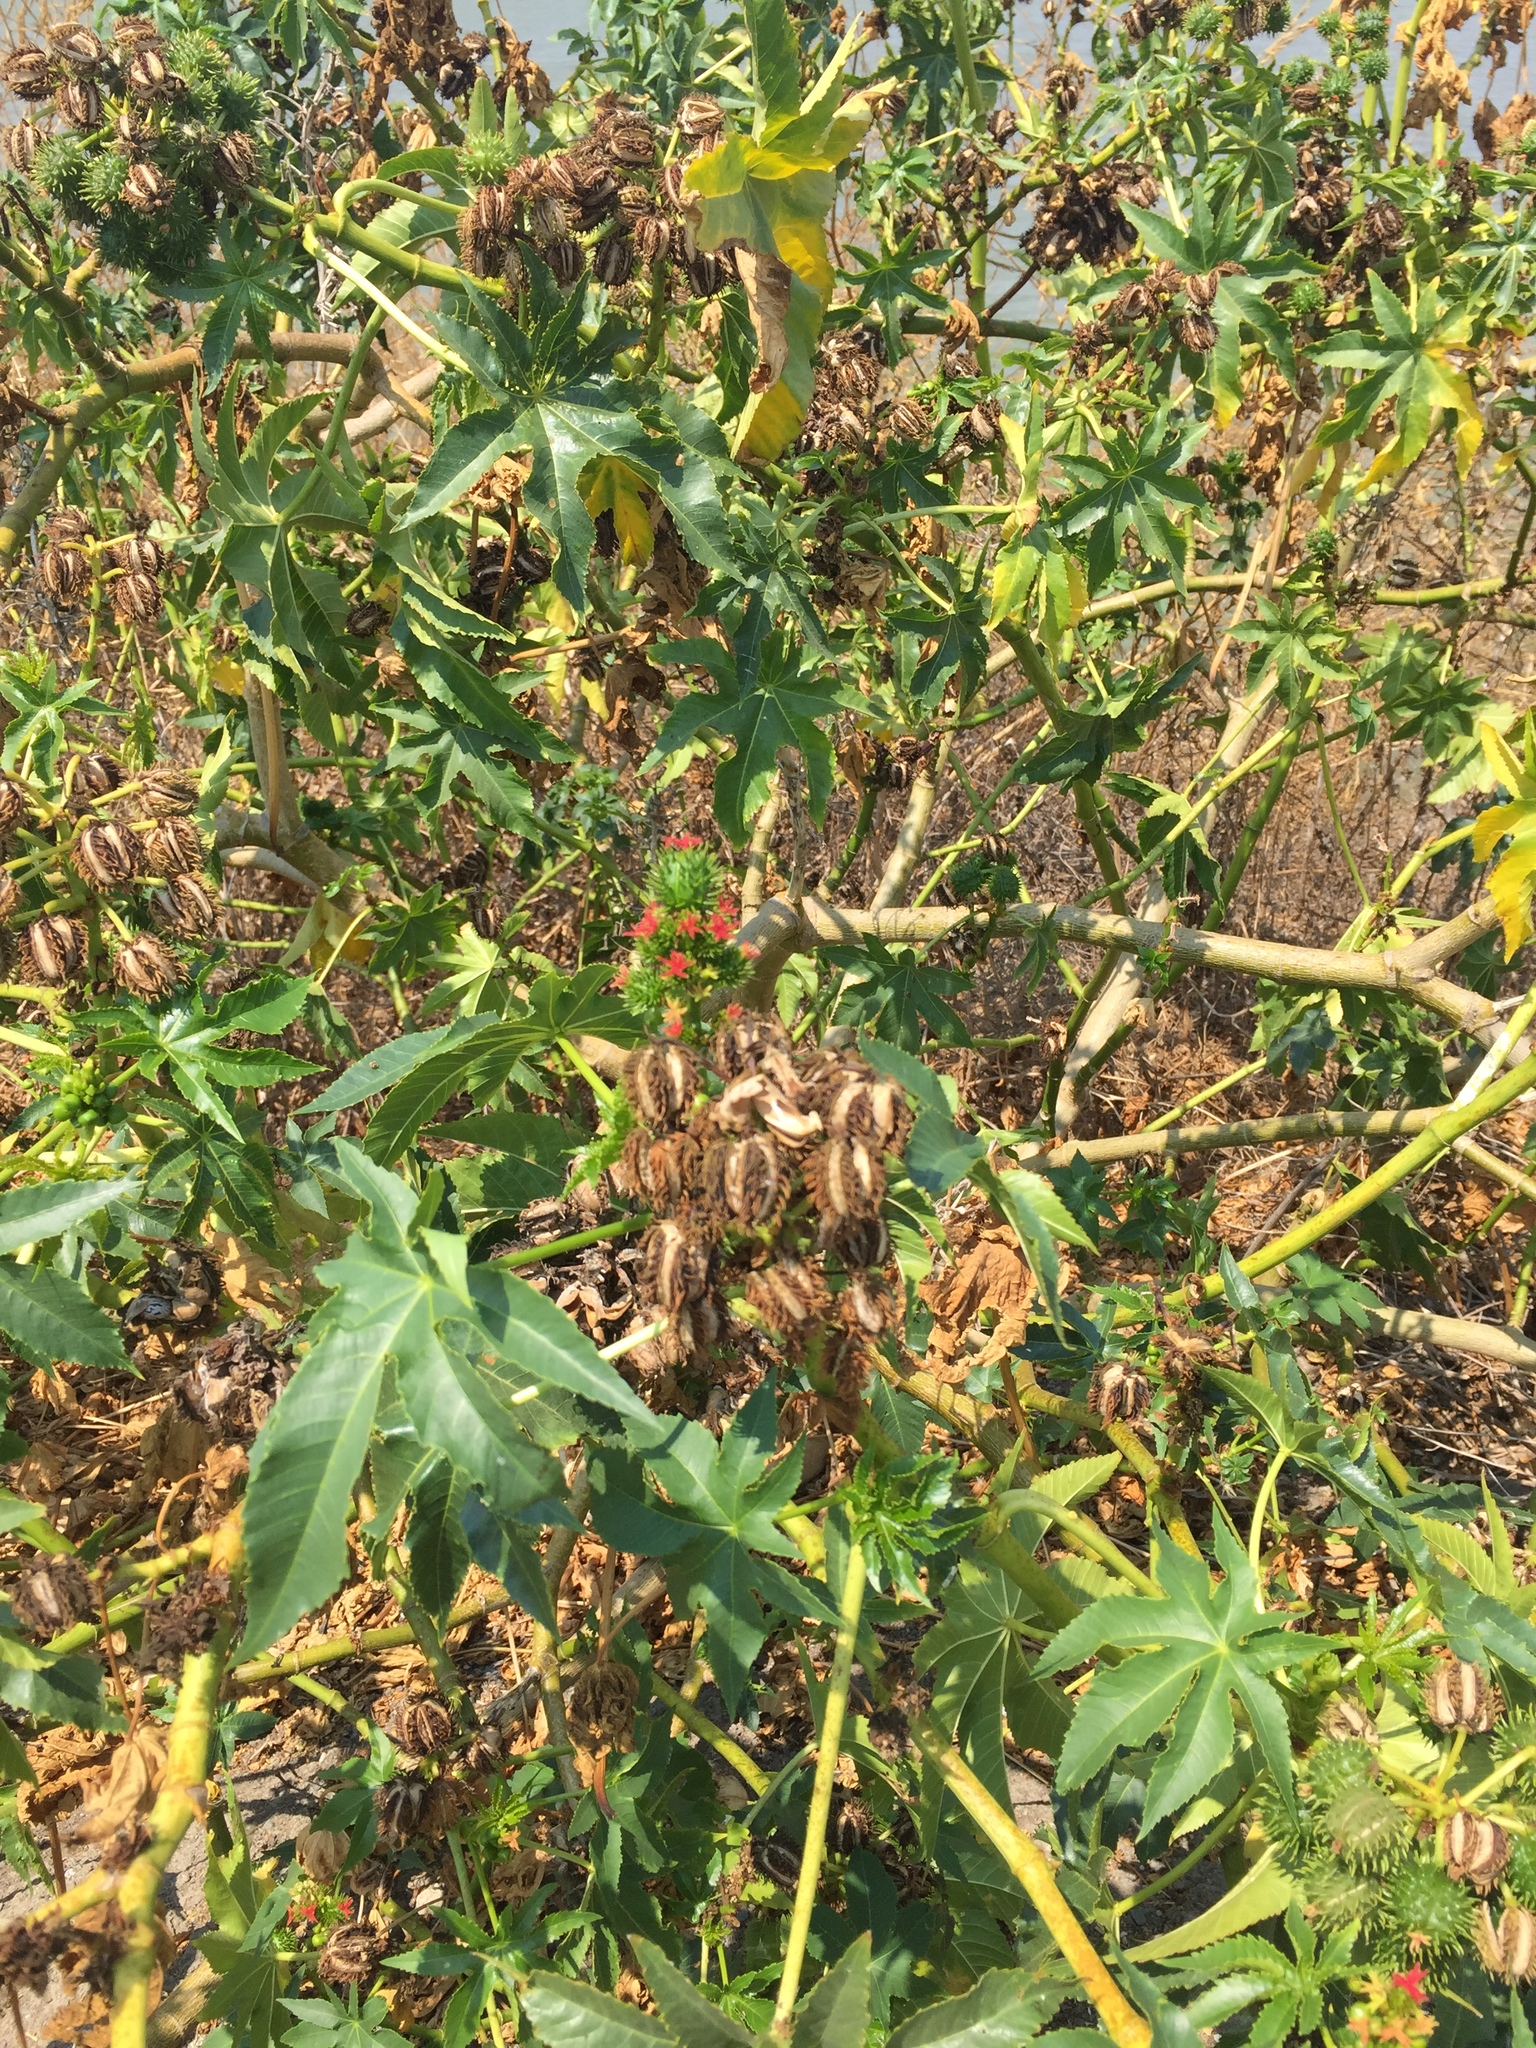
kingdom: Plantae
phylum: Tracheophyta
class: Magnoliopsida
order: Malpighiales
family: Euphorbiaceae
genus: Ricinus
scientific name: Ricinus communis
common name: Castor-oil-plant
